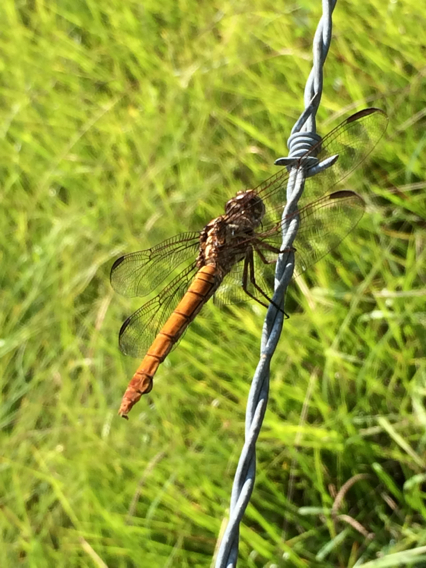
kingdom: Animalia
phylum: Arthropoda
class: Insecta
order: Odonata
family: Libellulidae
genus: Orthemis
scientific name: Orthemis ferruginea
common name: Roseate skimmer
